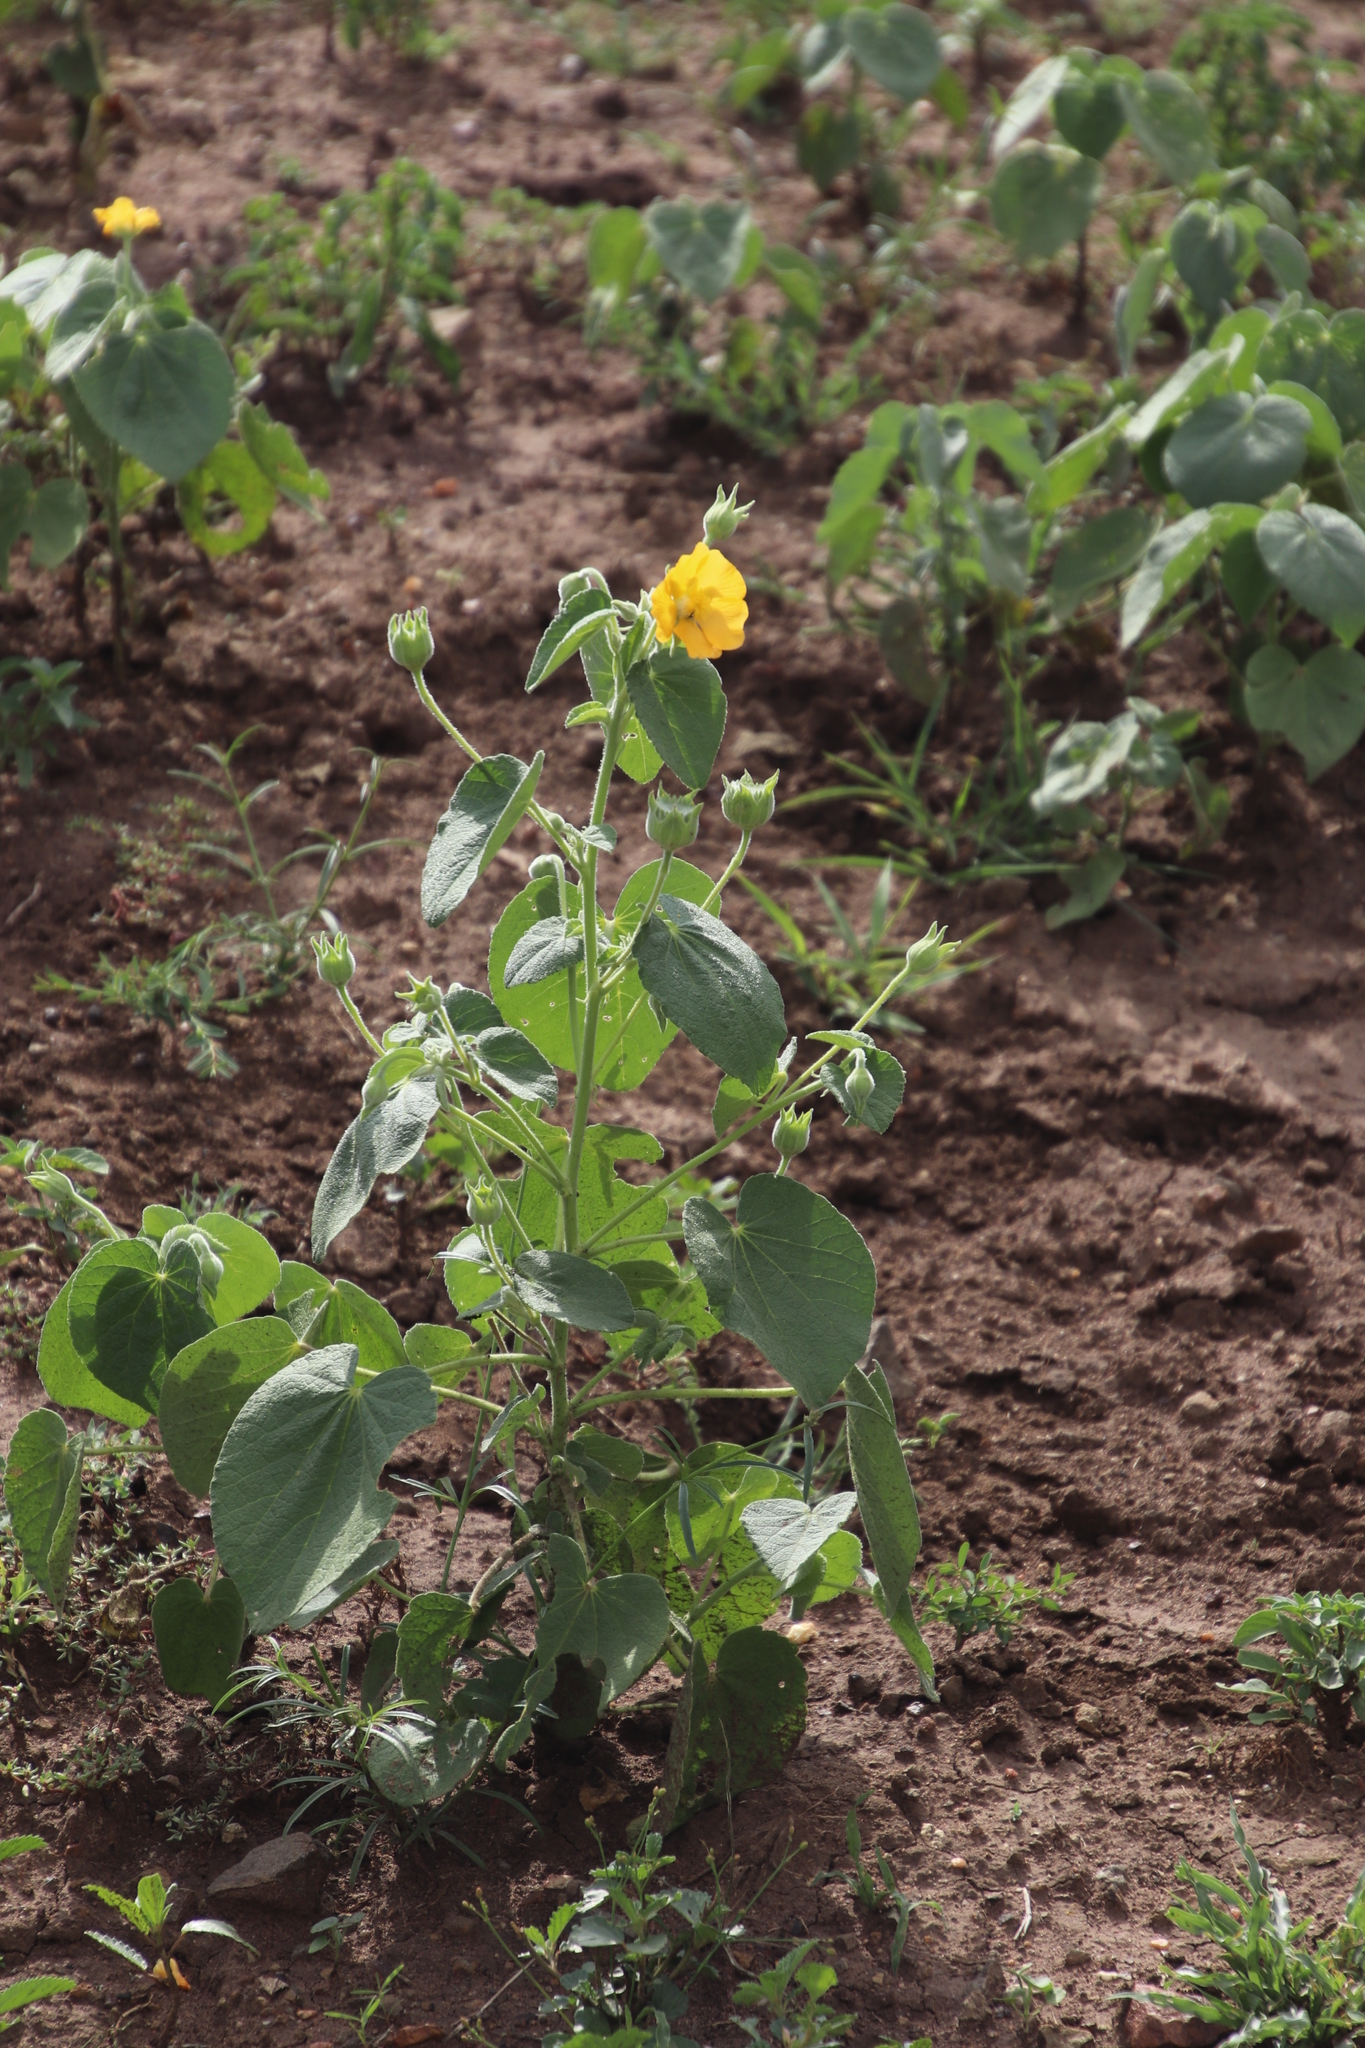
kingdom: Plantae
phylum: Tracheophyta
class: Magnoliopsida
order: Malvales
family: Malvaceae
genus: Abutilon
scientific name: Abutilon guineense
